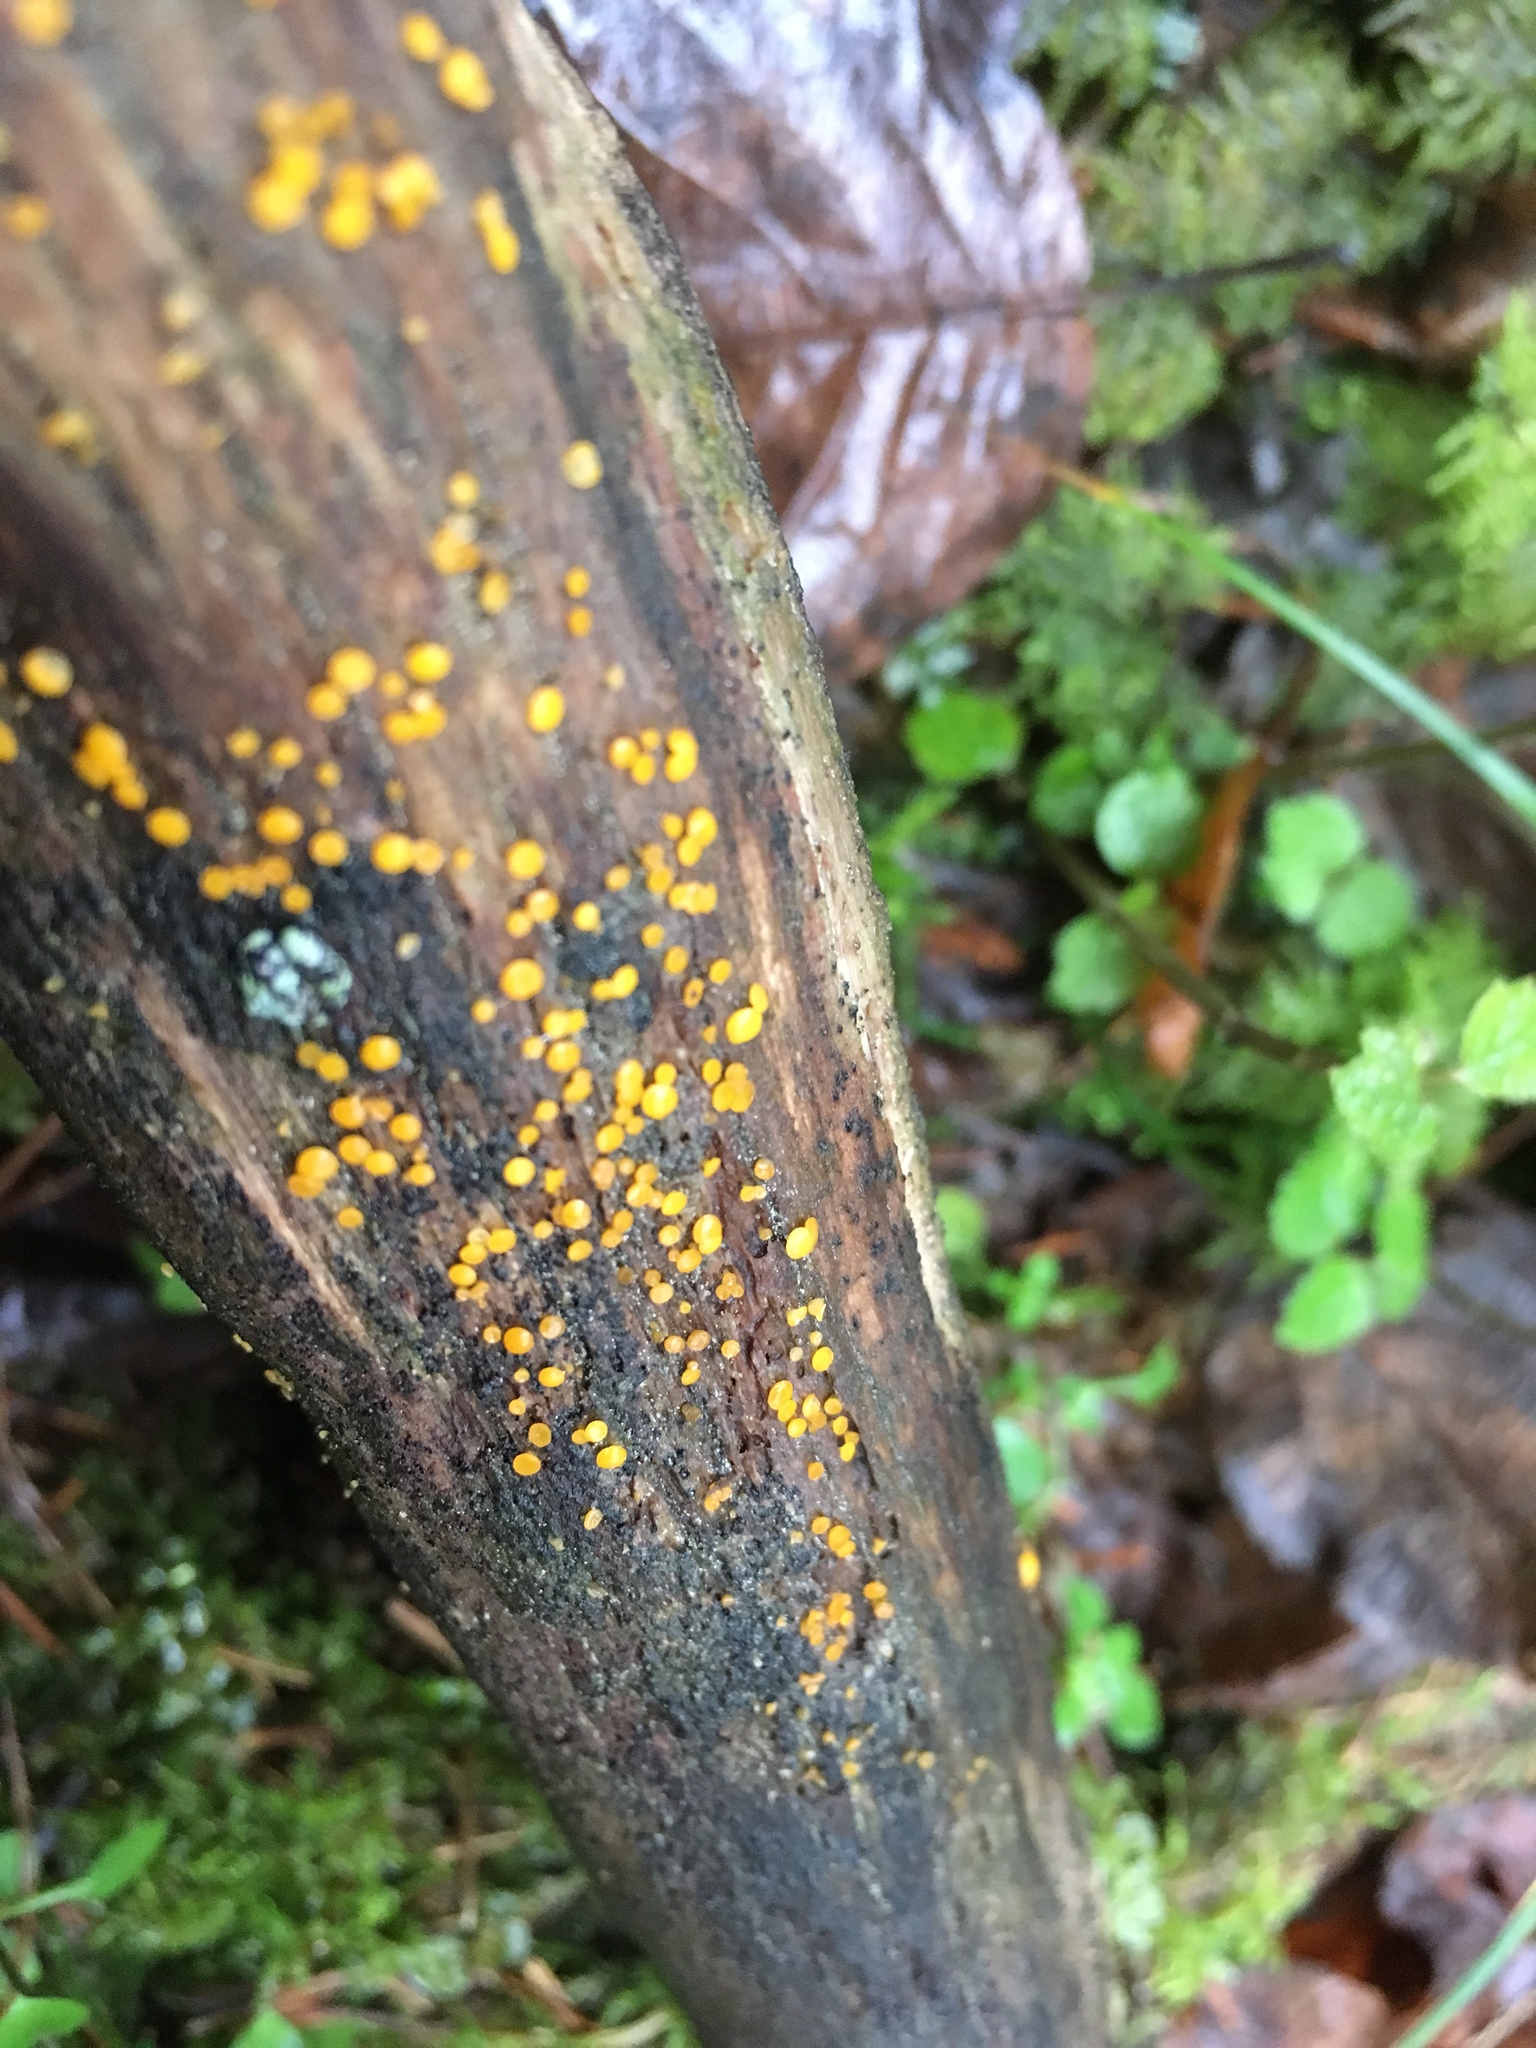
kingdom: Fungi
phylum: Ascomycota
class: Leotiomycetes
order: Helotiales
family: Pezizellaceae
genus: Calycina
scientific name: Calycina citrina
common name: Yellow fairy cups
